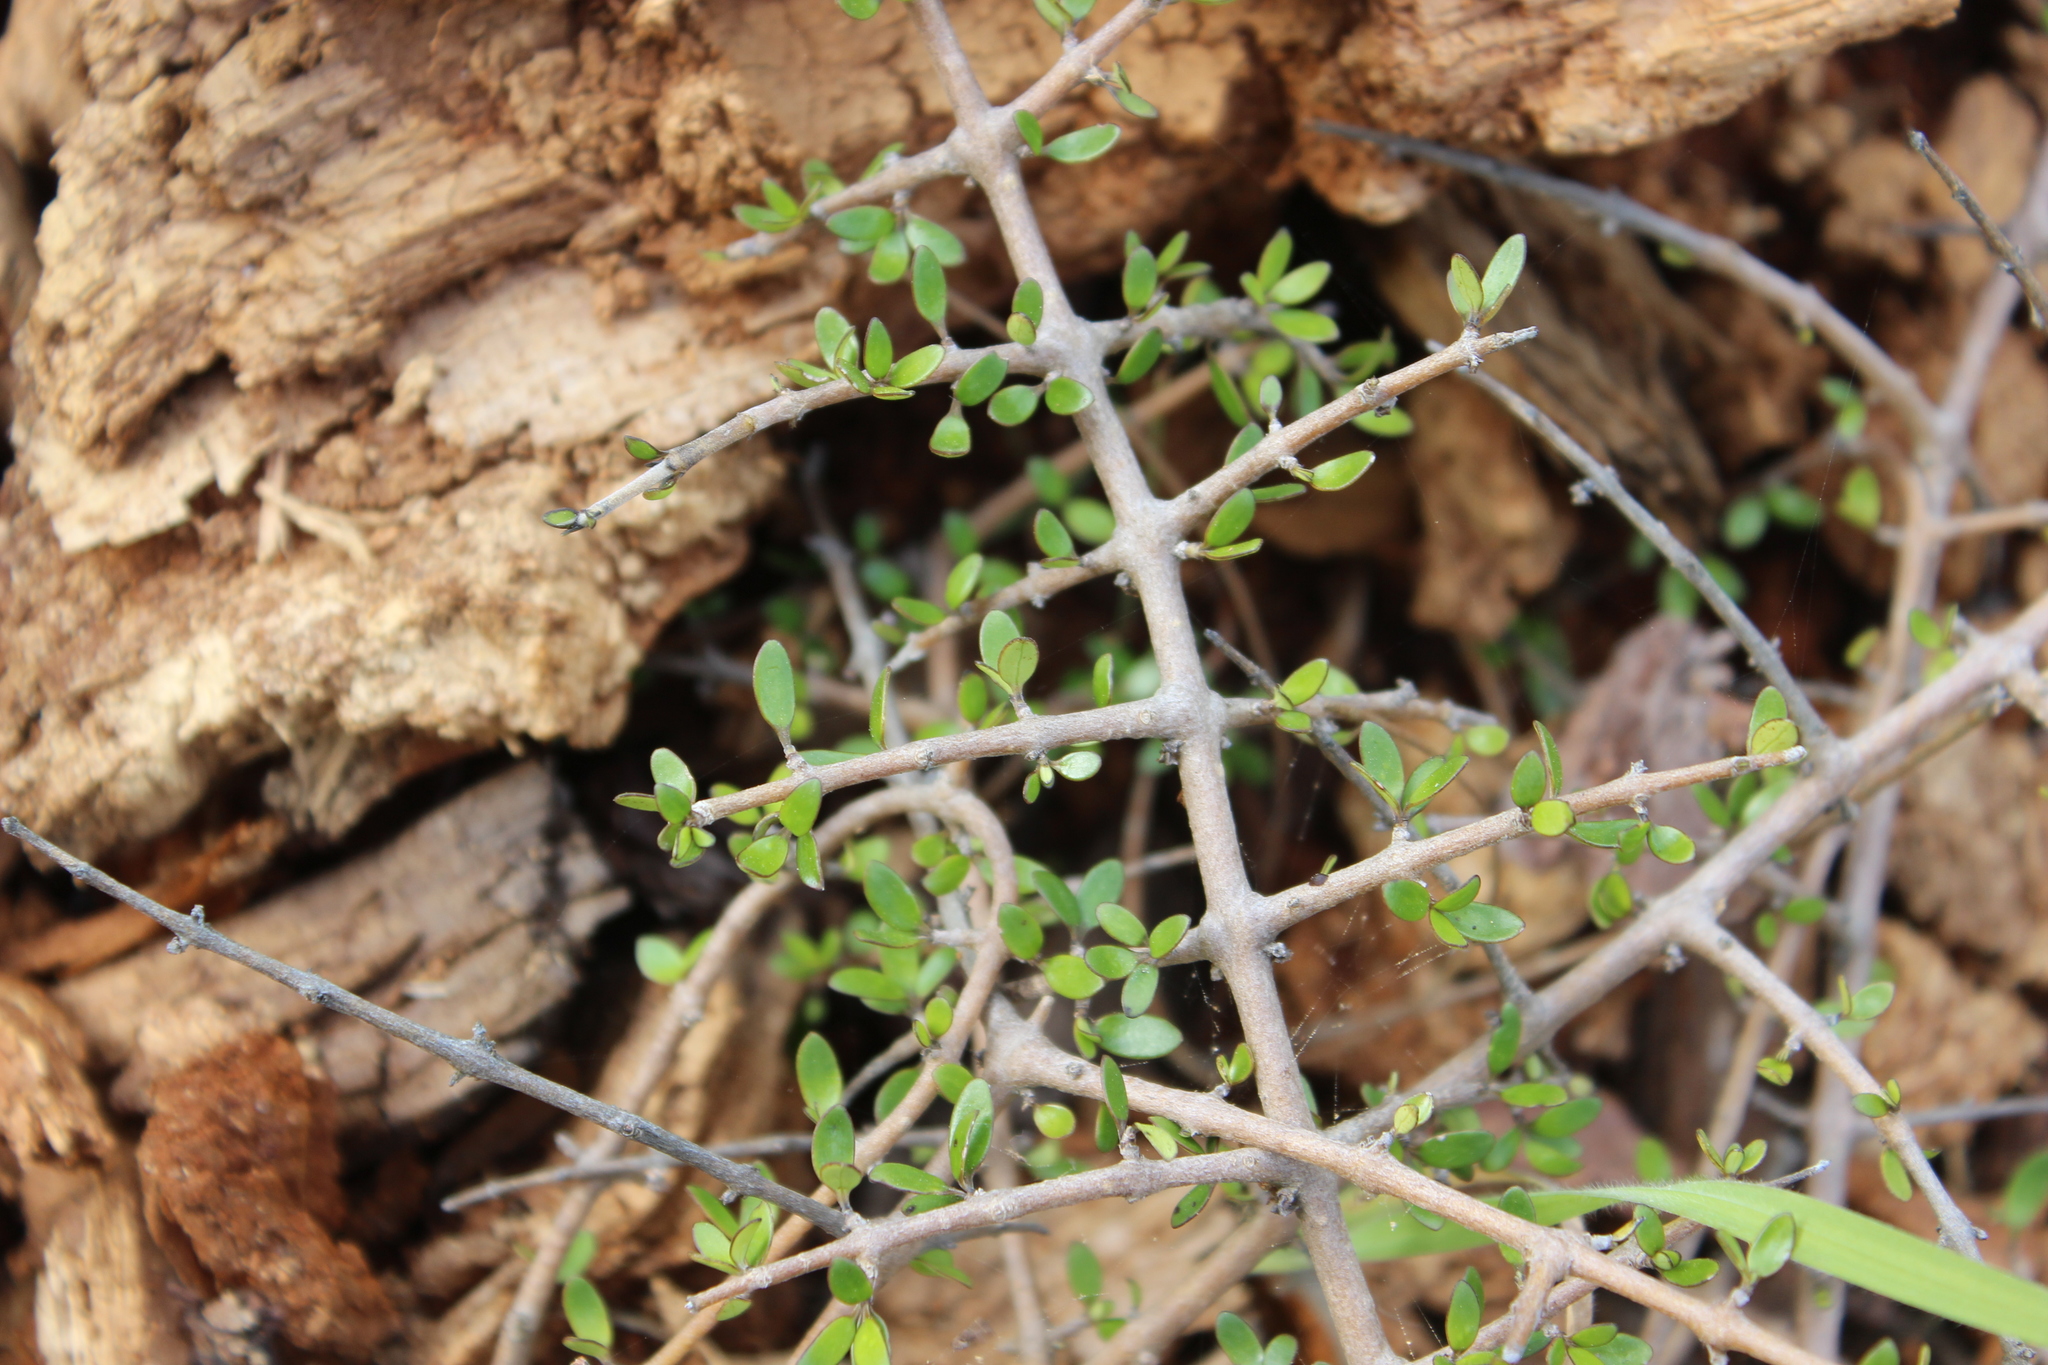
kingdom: Plantae
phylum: Tracheophyta
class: Magnoliopsida
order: Gentianales
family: Rubiaceae
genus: Coprosma
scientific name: Coprosma propinqua
